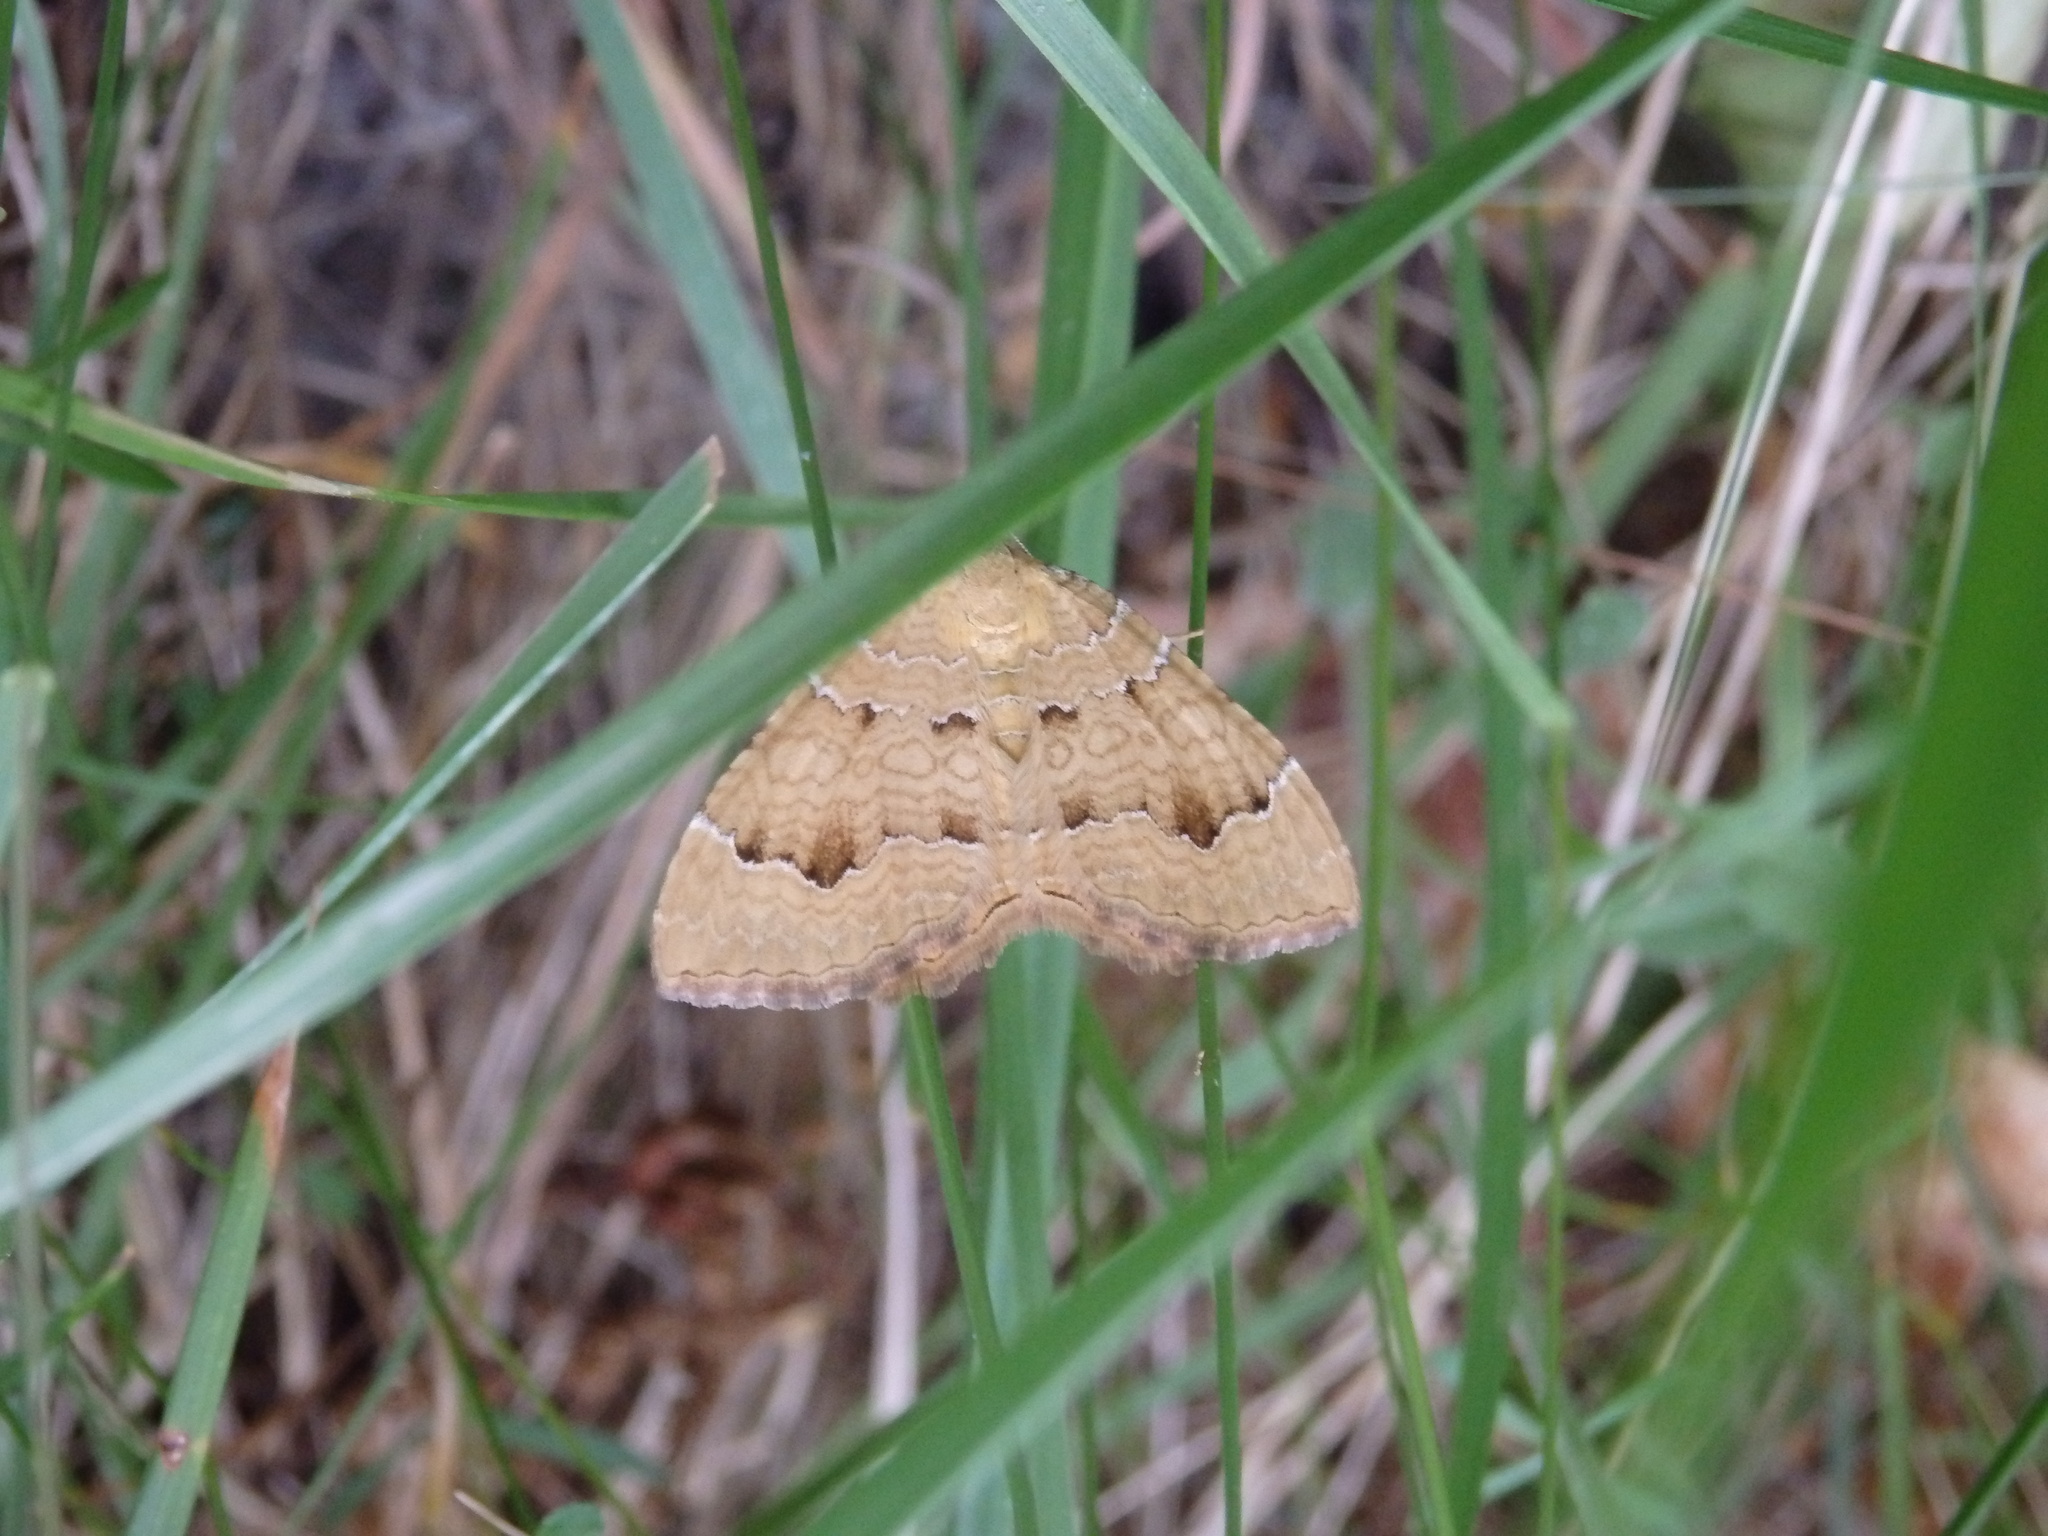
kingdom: Animalia
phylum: Arthropoda
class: Insecta
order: Lepidoptera
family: Geometridae
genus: Camptogramma
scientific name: Camptogramma bilineata
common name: Yellow shell
